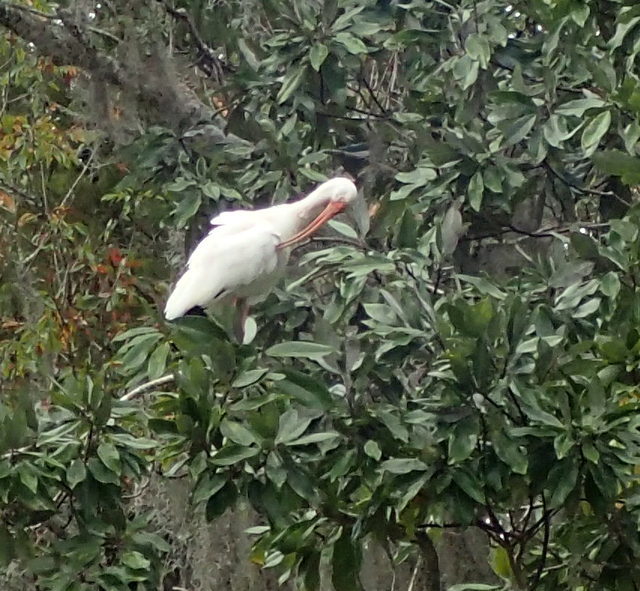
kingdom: Animalia
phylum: Chordata
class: Aves
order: Pelecaniformes
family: Threskiornithidae
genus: Eudocimus
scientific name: Eudocimus albus
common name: White ibis
